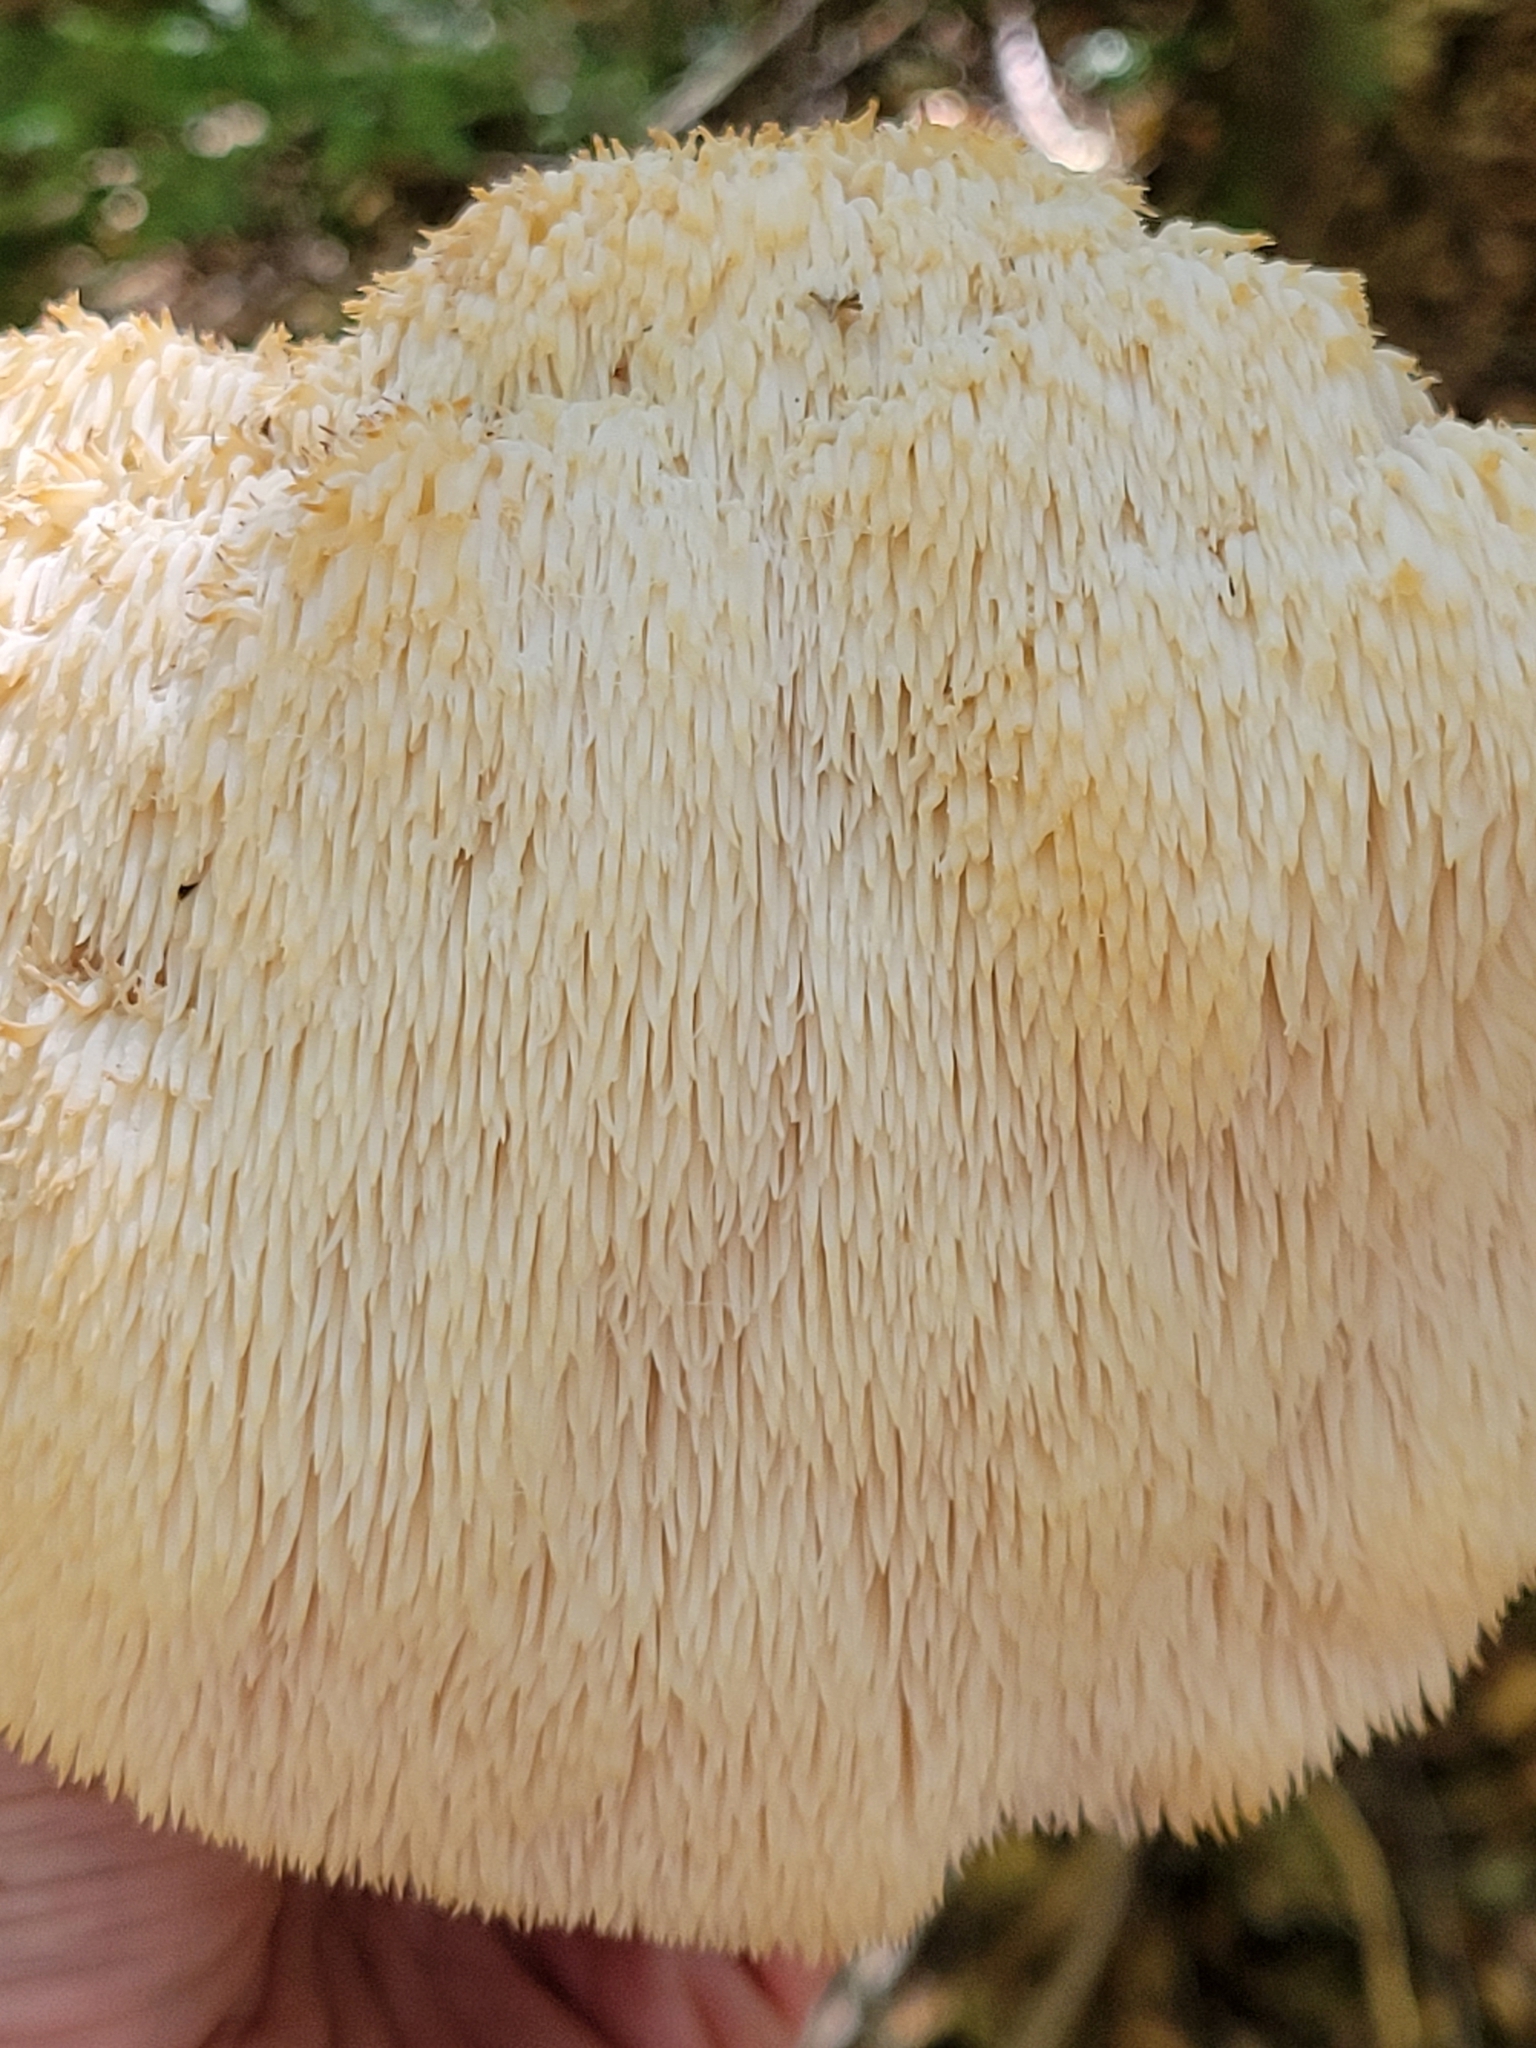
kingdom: Fungi
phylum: Basidiomycota
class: Agaricomycetes
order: Russulales
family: Hericiaceae
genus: Hericium
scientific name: Hericium erinaceus
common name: Bearded tooth
